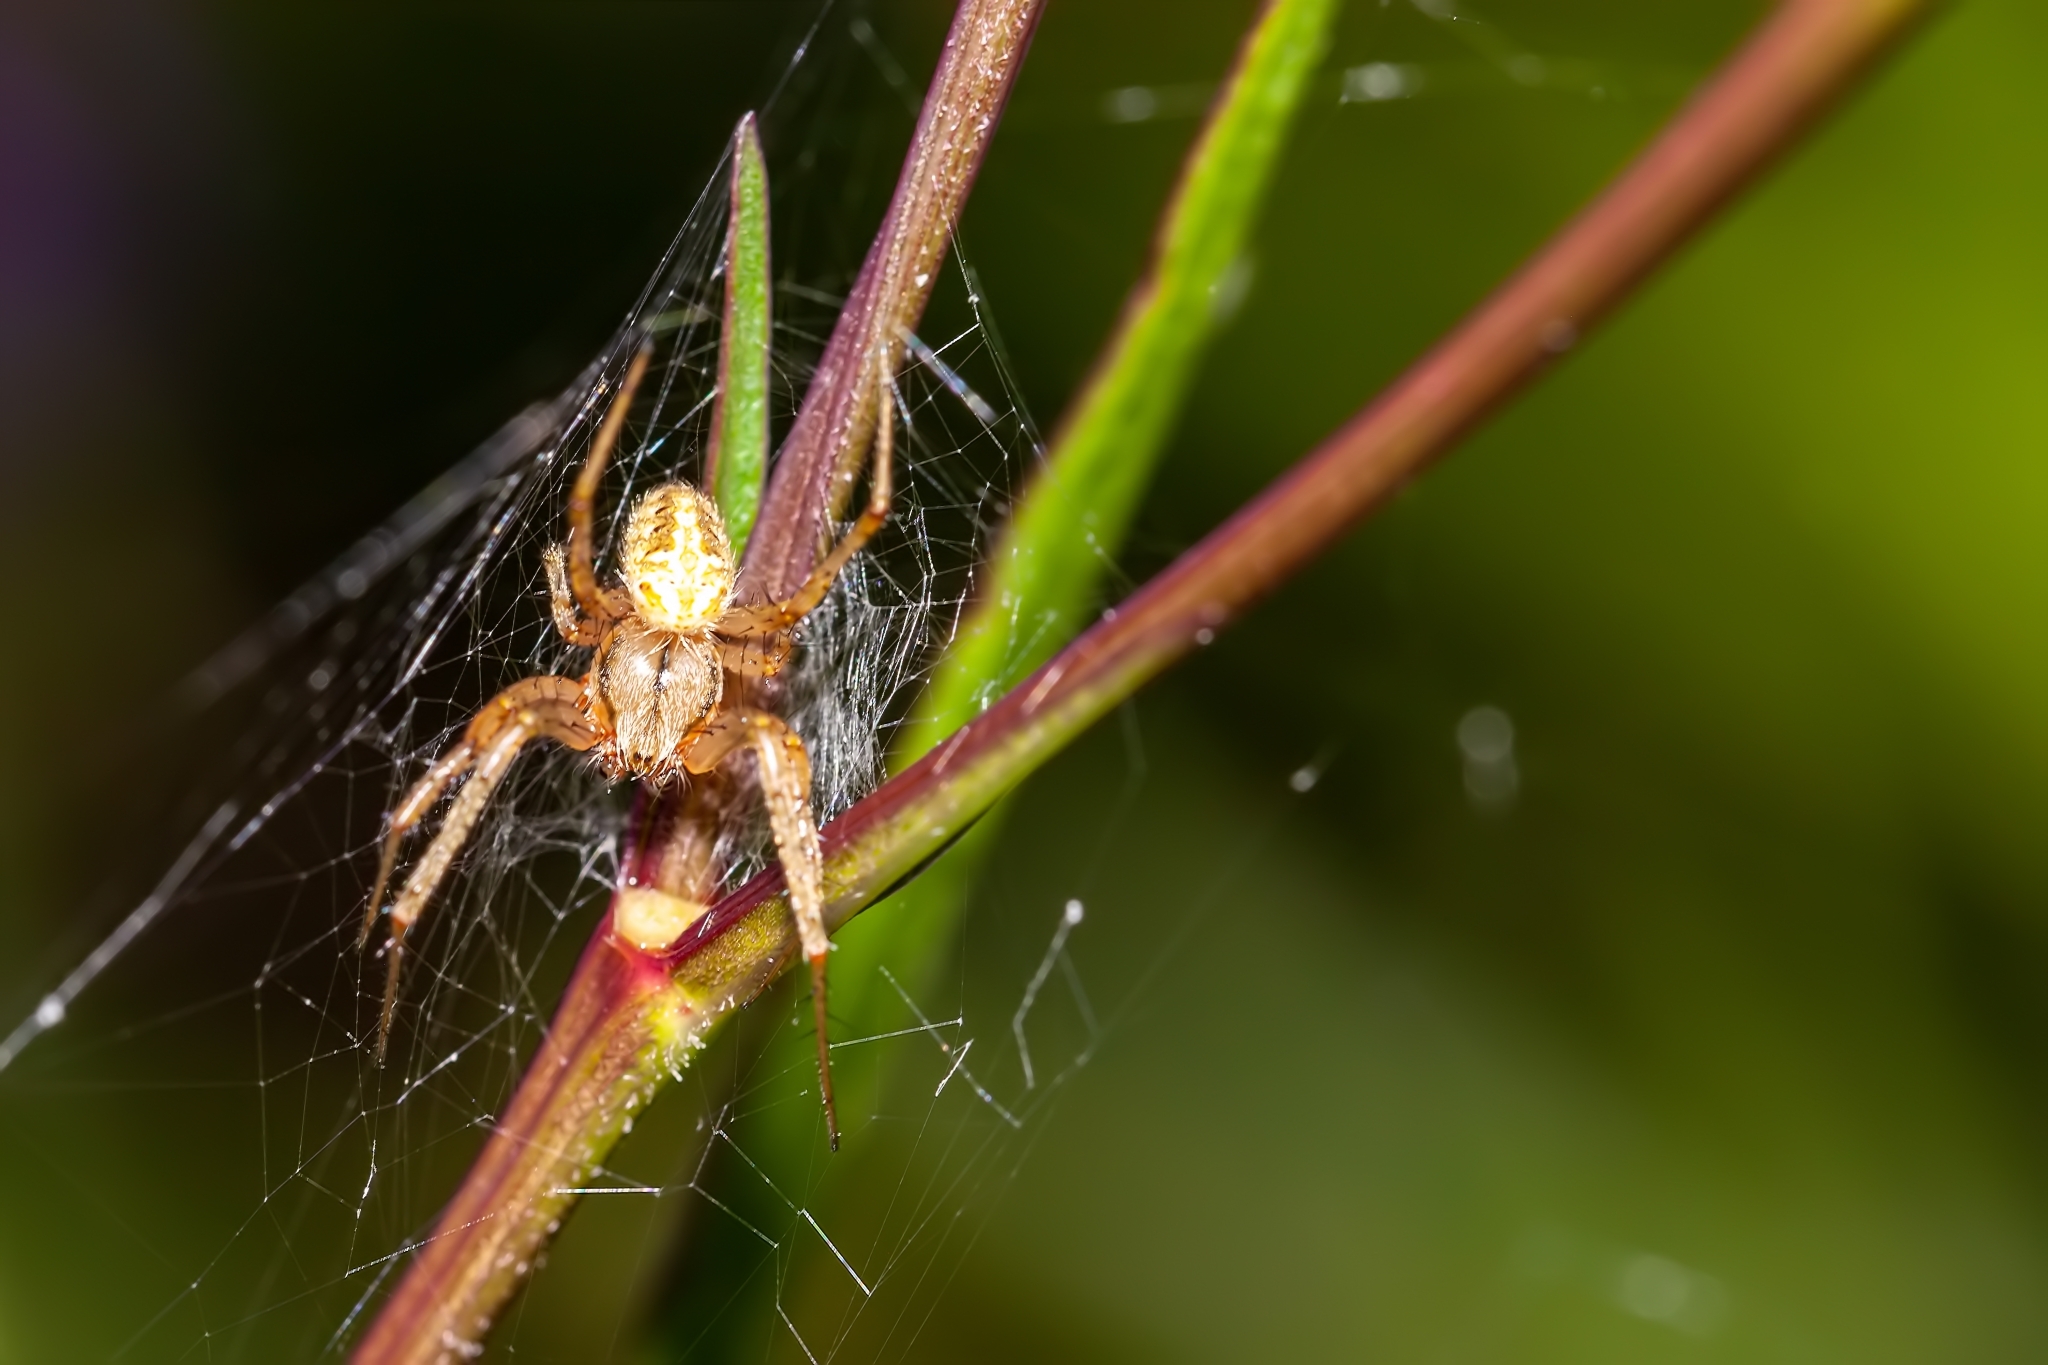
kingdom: Animalia
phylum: Arthropoda
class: Arachnida
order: Araneae
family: Araneidae
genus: Neoscona
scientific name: Neoscona arabesca
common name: Orb weavers
